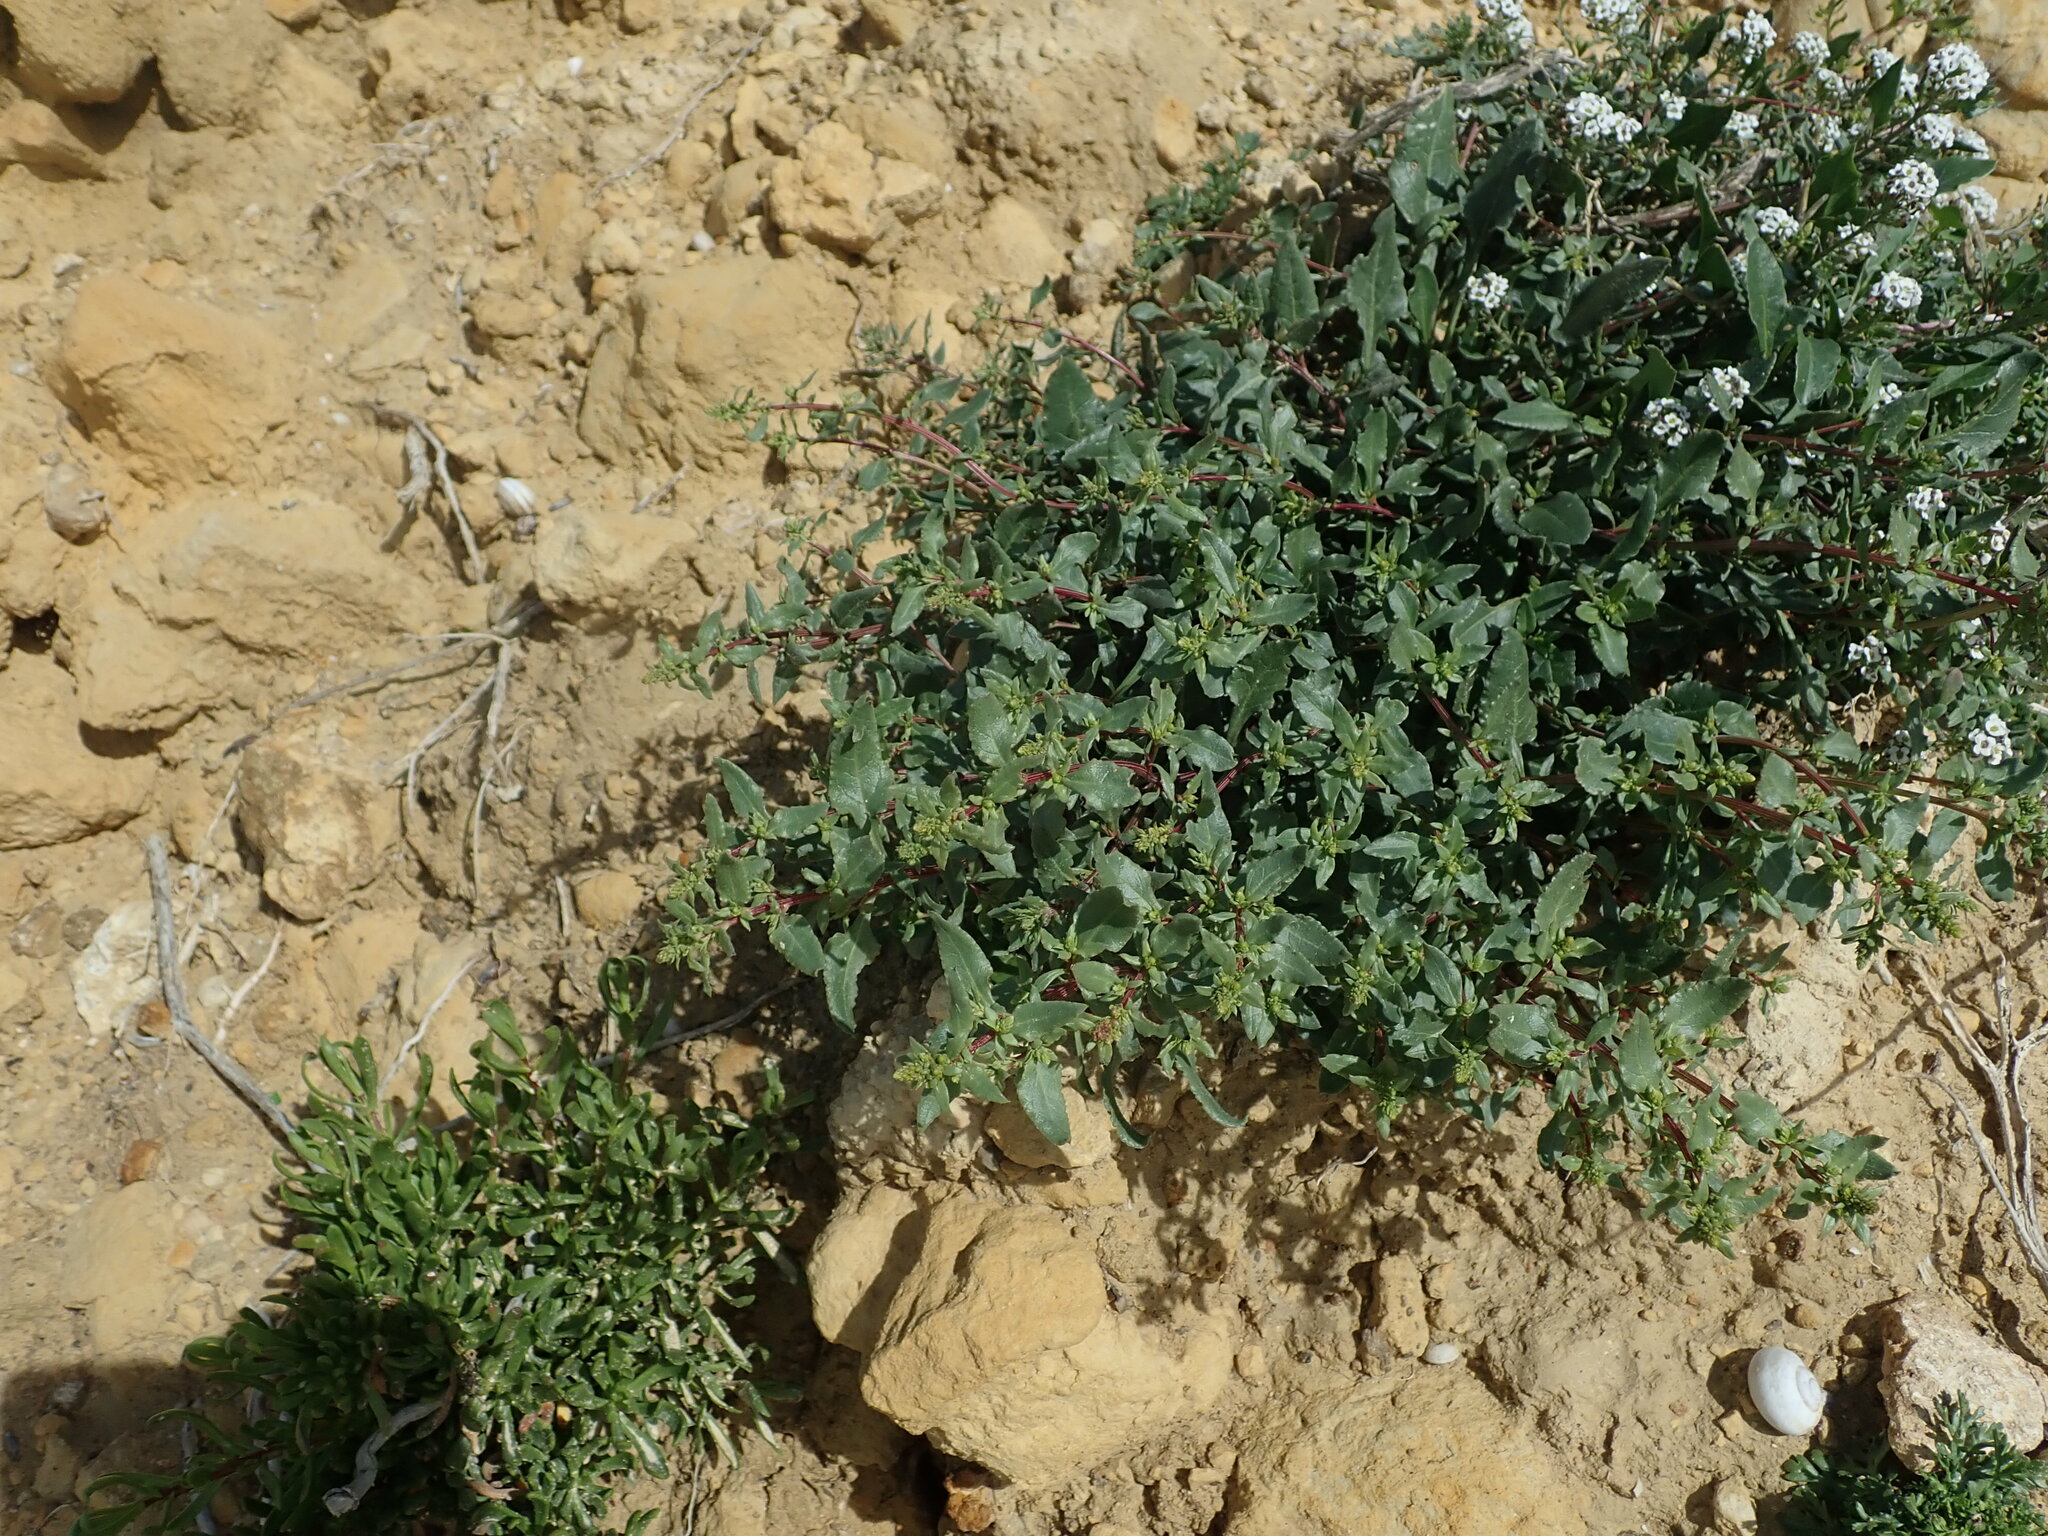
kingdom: Plantae
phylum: Tracheophyta
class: Magnoliopsida
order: Caryophyllales
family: Amaranthaceae
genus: Beta
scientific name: Beta vulgaris
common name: Beet
